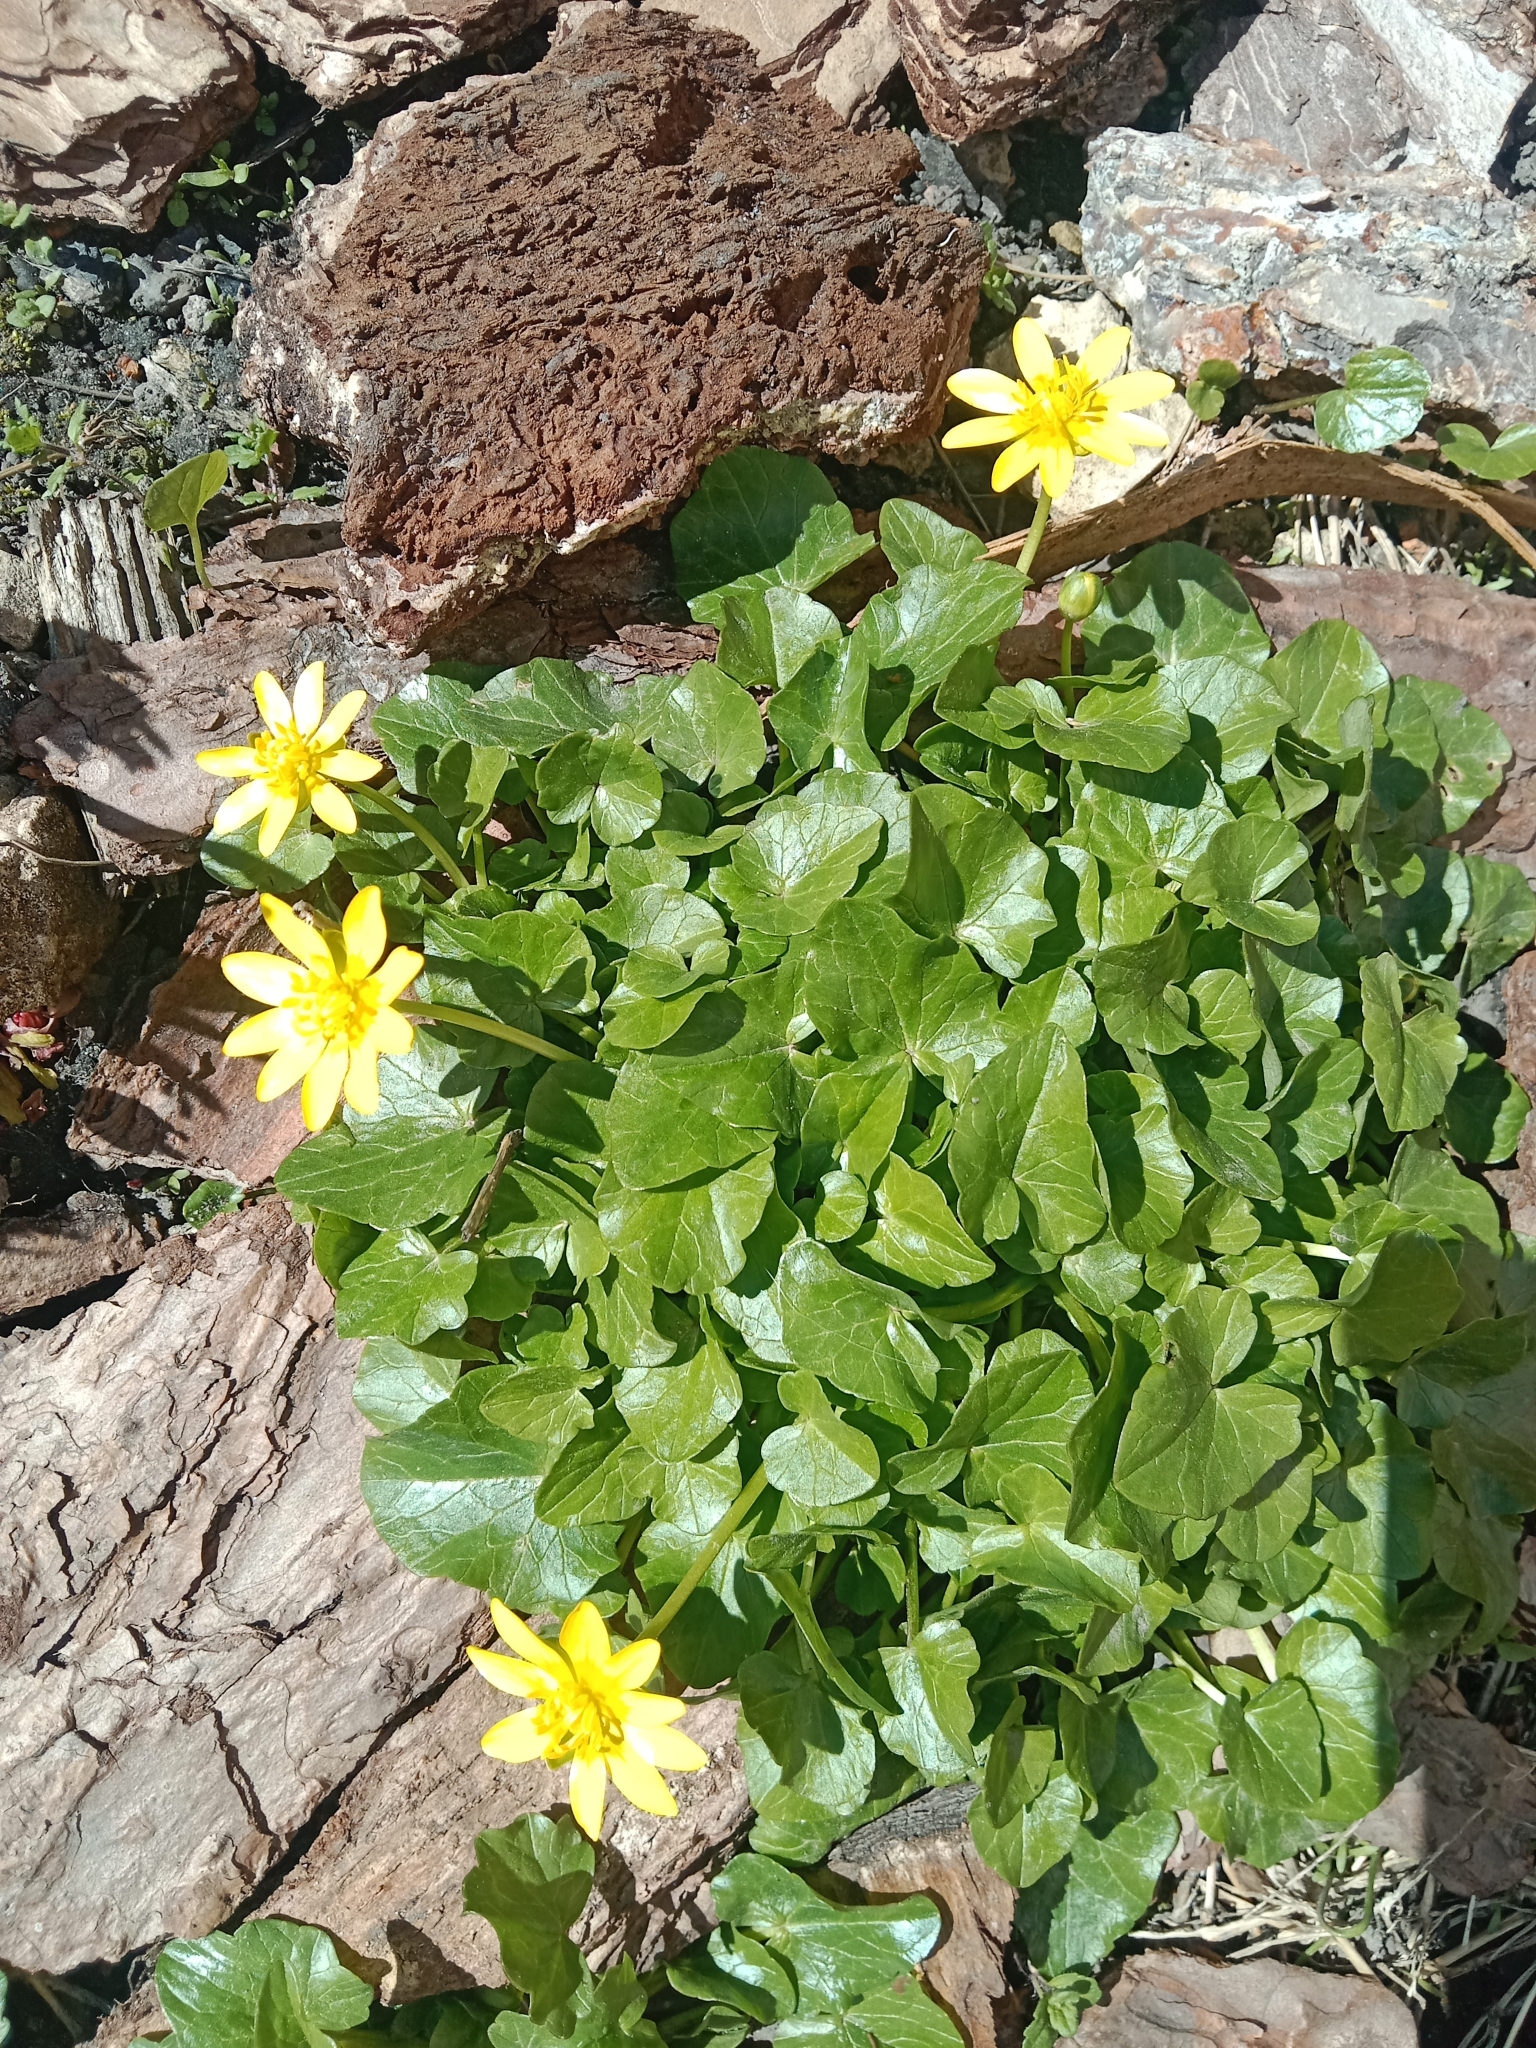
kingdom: Plantae
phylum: Tracheophyta
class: Magnoliopsida
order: Ranunculales
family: Ranunculaceae
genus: Ficaria
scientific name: Ficaria verna
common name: Lesser celandine
